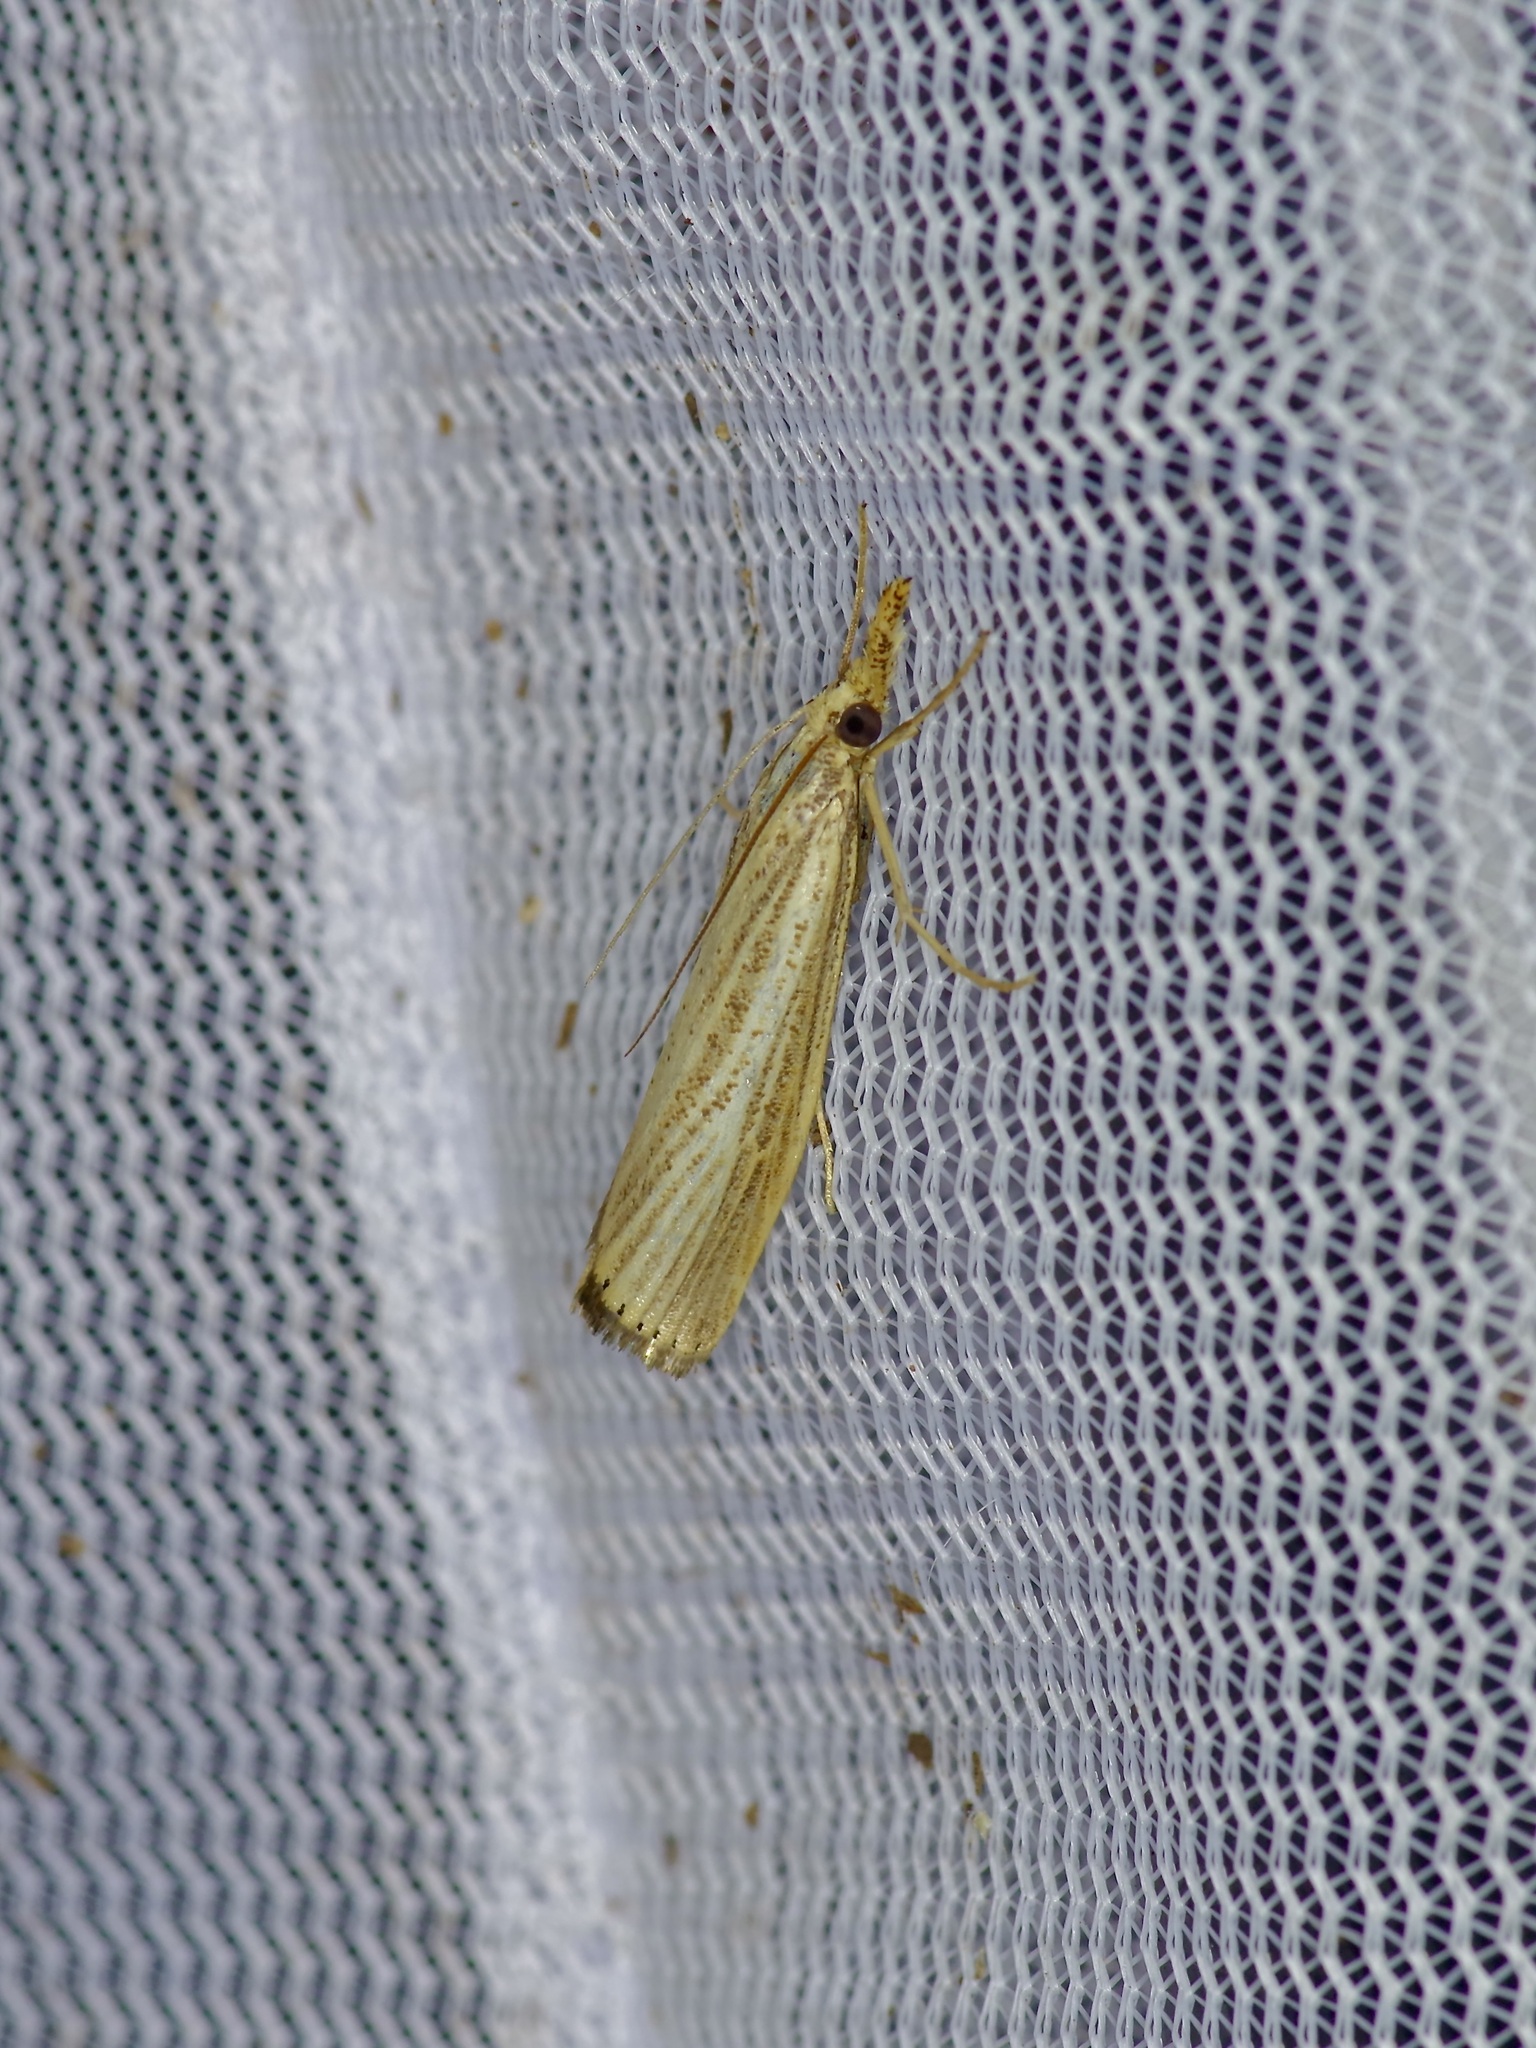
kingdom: Animalia
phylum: Arthropoda
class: Insecta
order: Lepidoptera
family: Crambidae
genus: Agriphila
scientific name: Agriphila vulgivagellus
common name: Vagabond crambus moth
